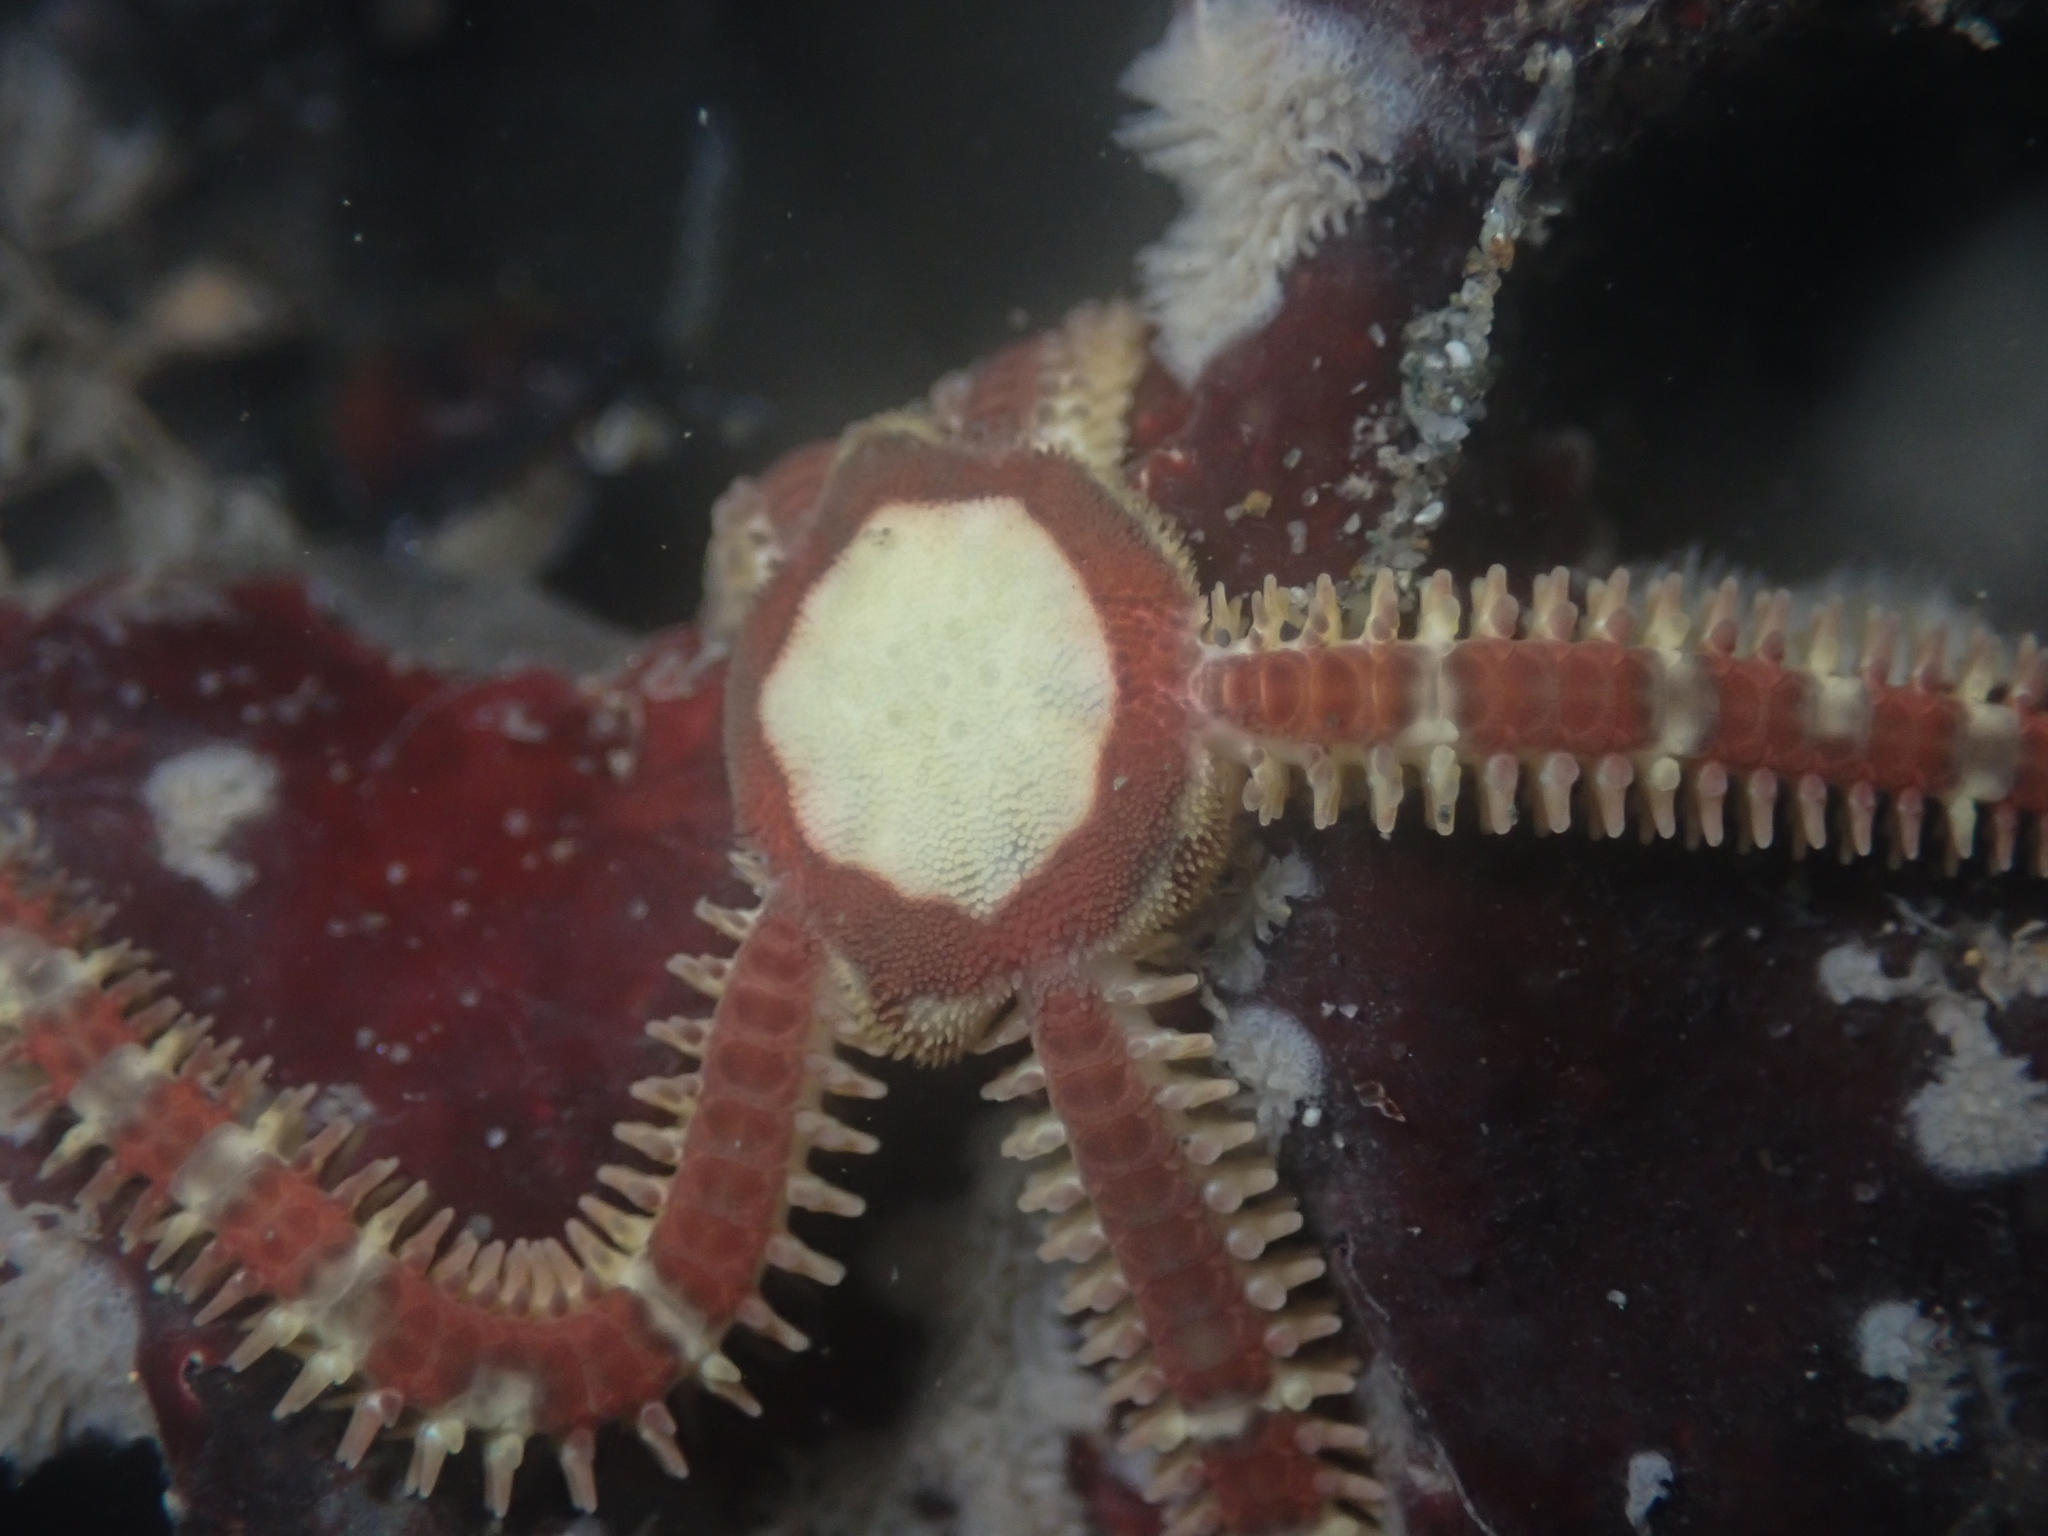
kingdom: Animalia
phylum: Echinodermata
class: Ophiuroidea
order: Amphilepidida
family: Ophiopholidae
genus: Ophiopholis
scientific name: Ophiopholis aculeata
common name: Crevice brittlestar
